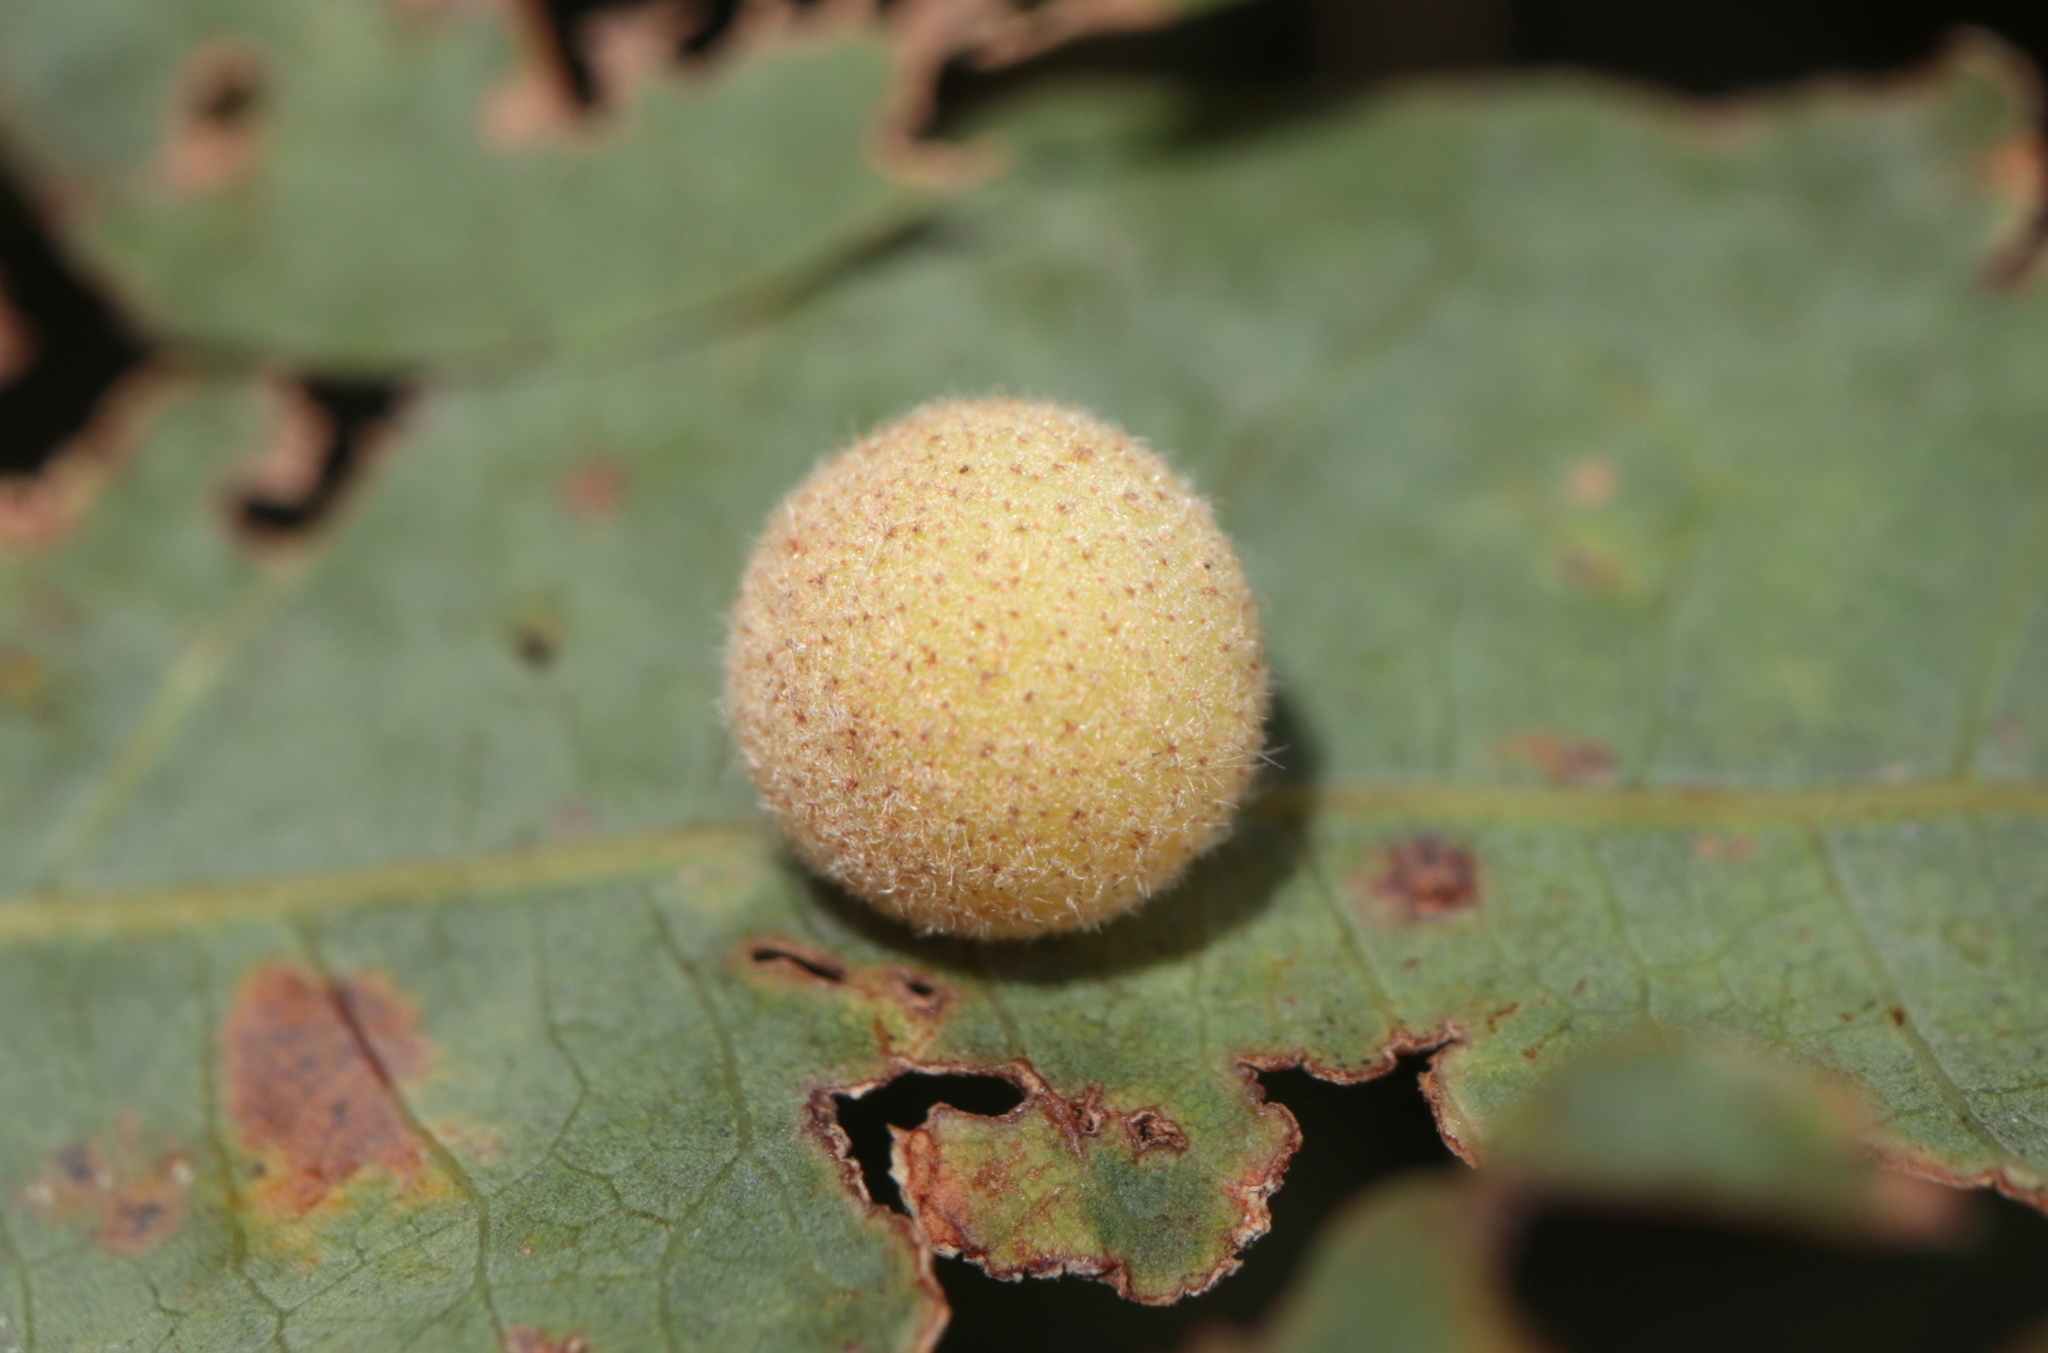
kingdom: Animalia
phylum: Arthropoda
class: Insecta
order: Hymenoptera
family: Cynipidae
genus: Philonix
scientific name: Philonix fulvicollis
